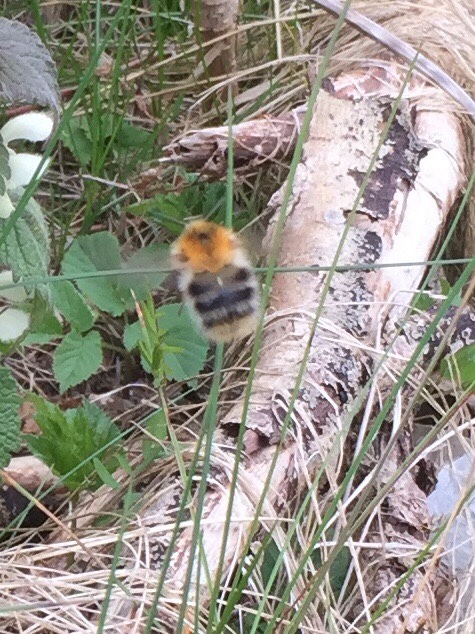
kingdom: Animalia
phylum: Arthropoda
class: Insecta
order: Hymenoptera
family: Apidae
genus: Bombus
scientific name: Bombus pascuorum
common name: Common carder bee
